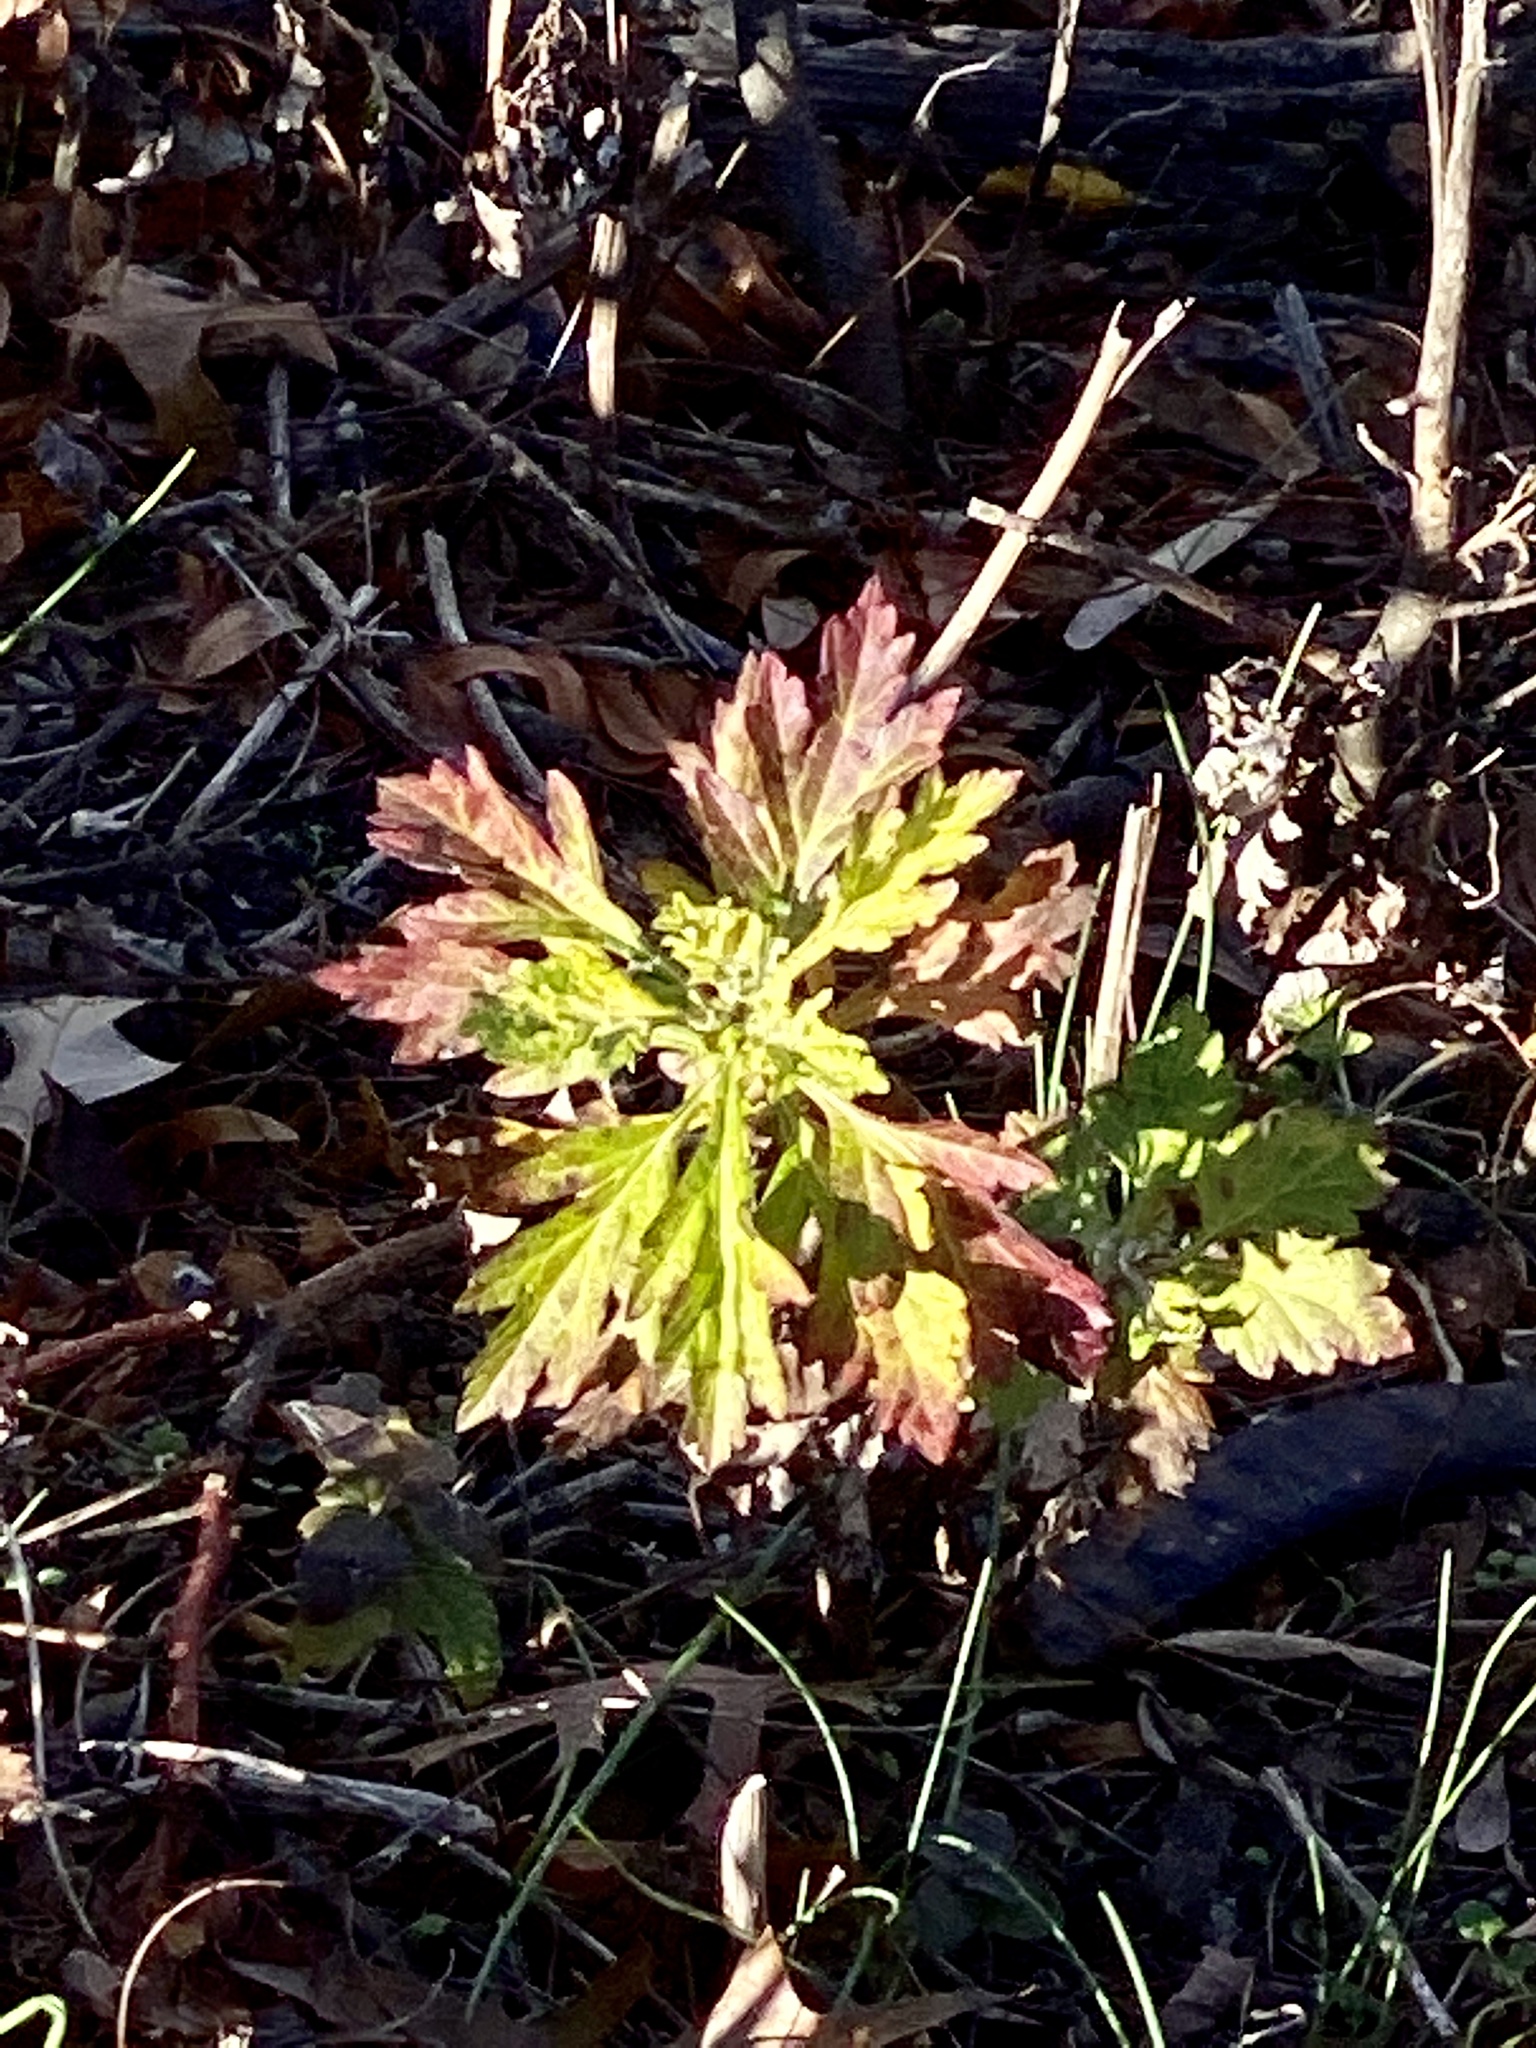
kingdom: Plantae
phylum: Tracheophyta
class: Magnoliopsida
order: Asterales
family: Asteraceae
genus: Artemisia
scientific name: Artemisia vulgaris
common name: Mugwort
